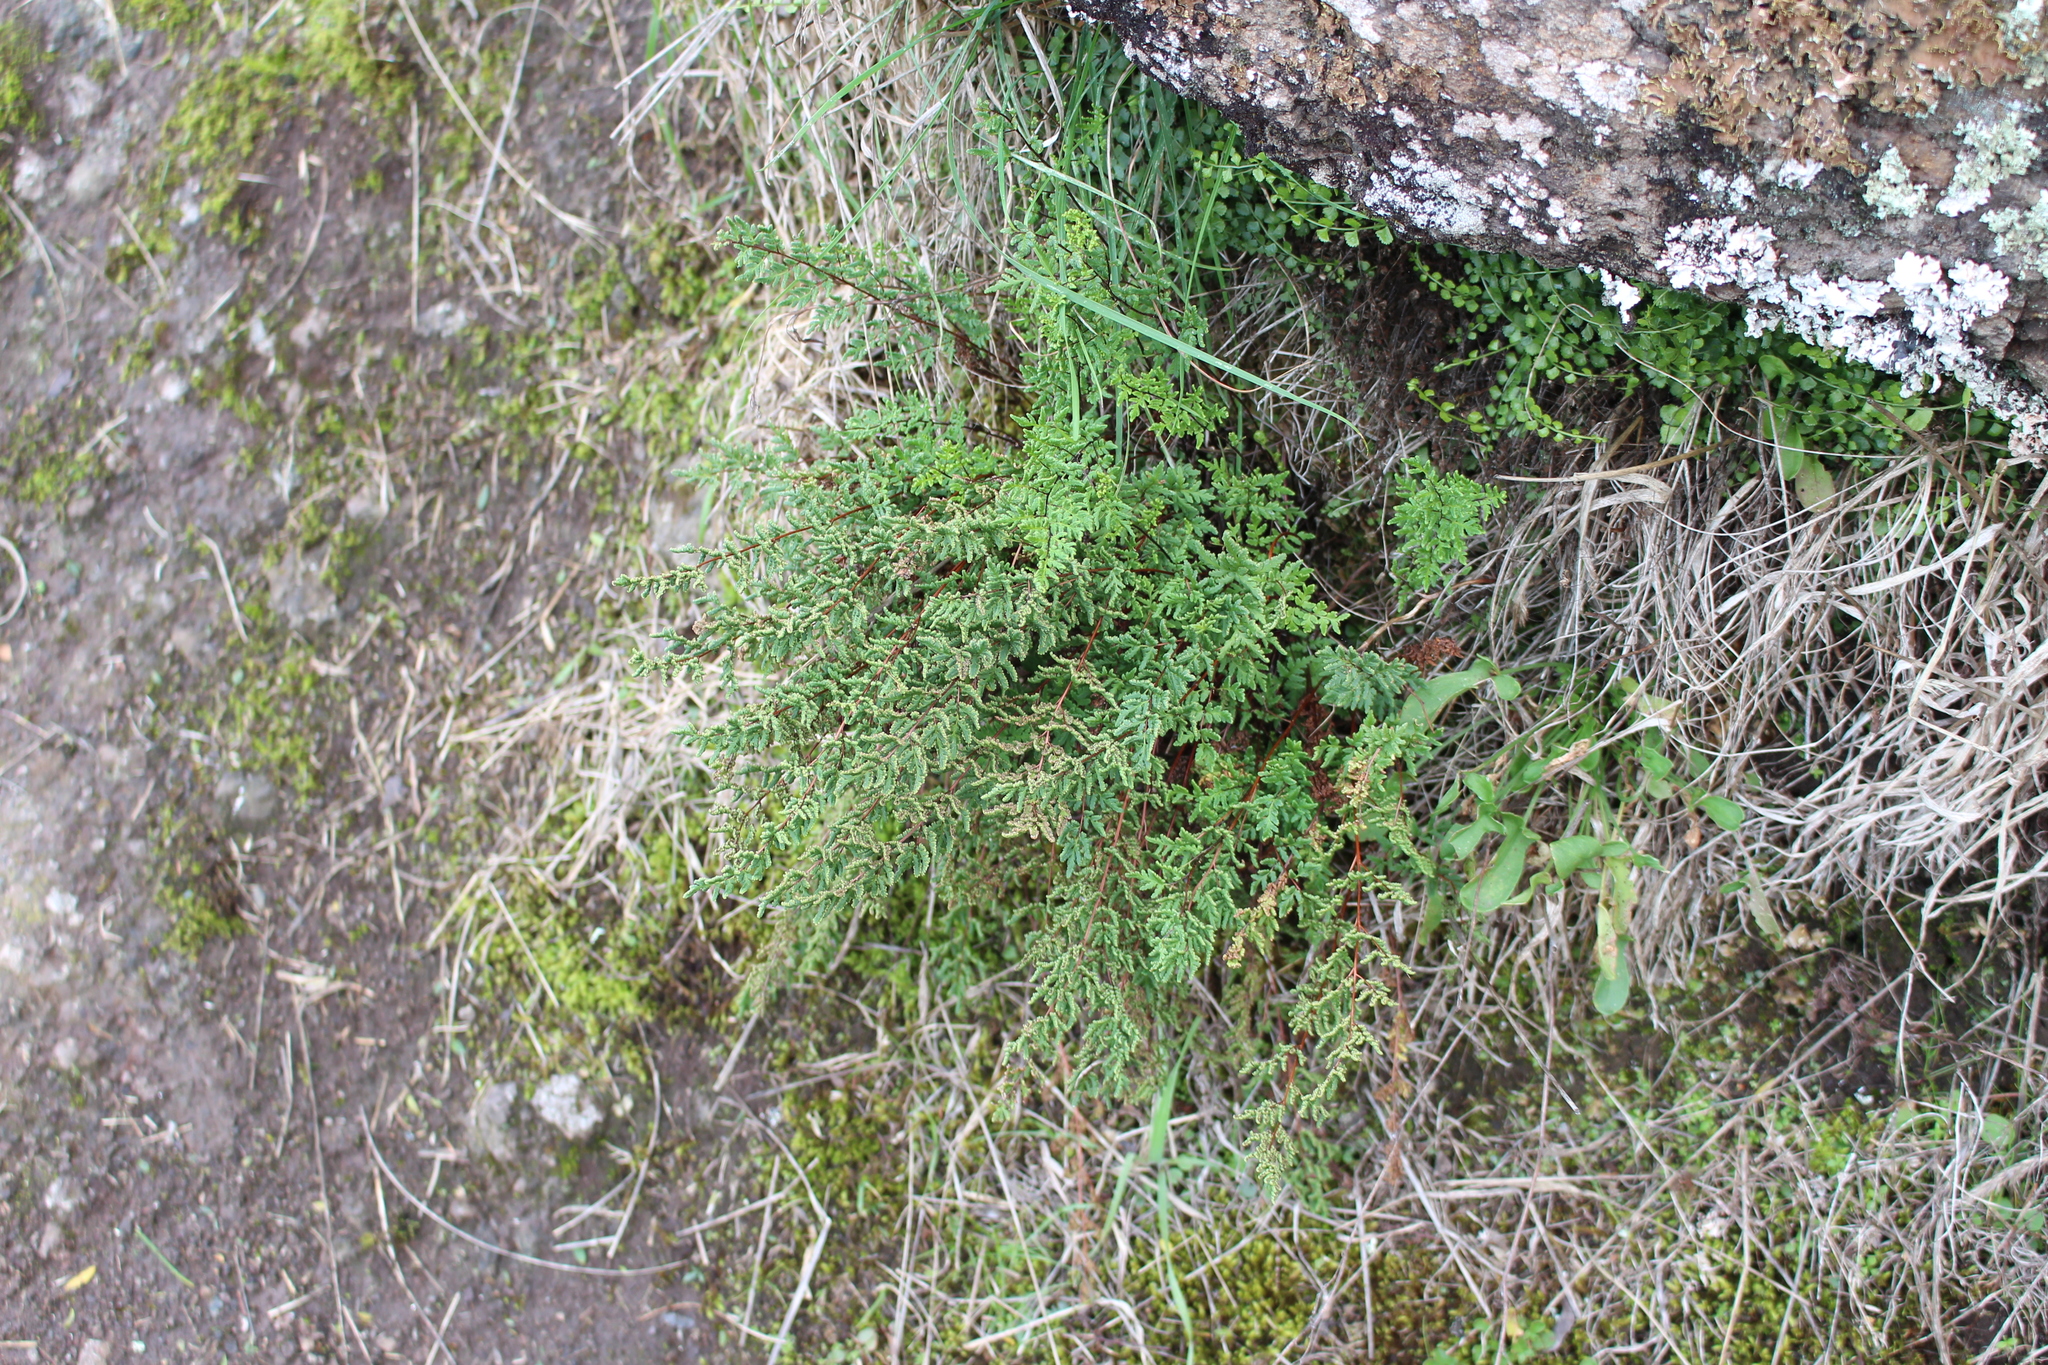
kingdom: Plantae
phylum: Tracheophyta
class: Polypodiopsida
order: Polypodiales
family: Pteridaceae
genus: Cheilanthes
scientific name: Cheilanthes sieberi
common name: Mulga fern
